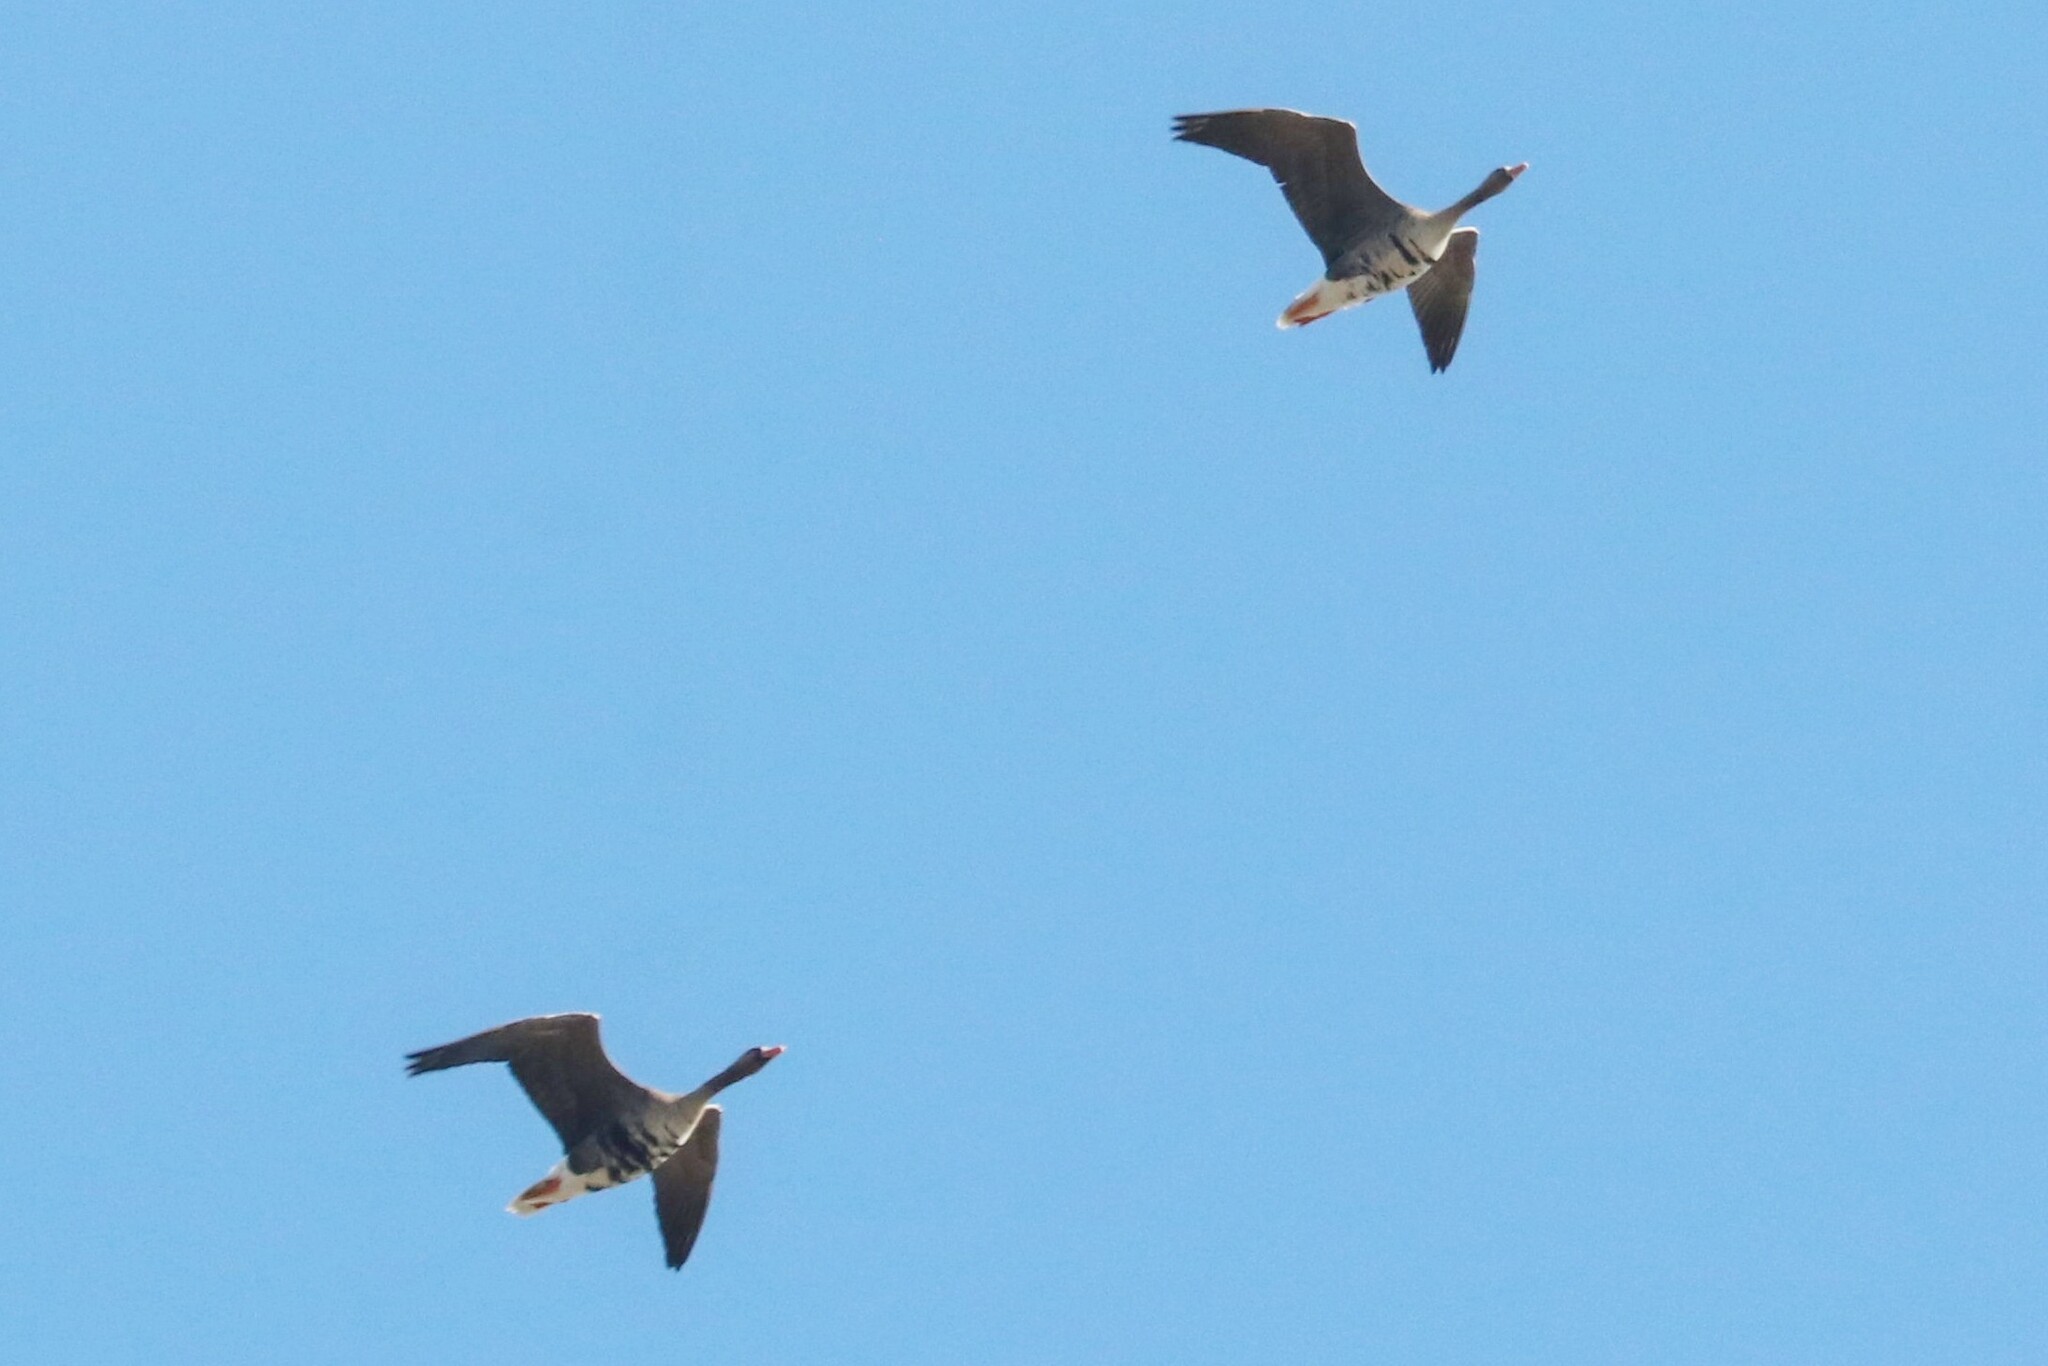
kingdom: Animalia
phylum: Chordata
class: Aves
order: Anseriformes
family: Anatidae
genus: Anser
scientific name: Anser albifrons
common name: Greater white-fronted goose
